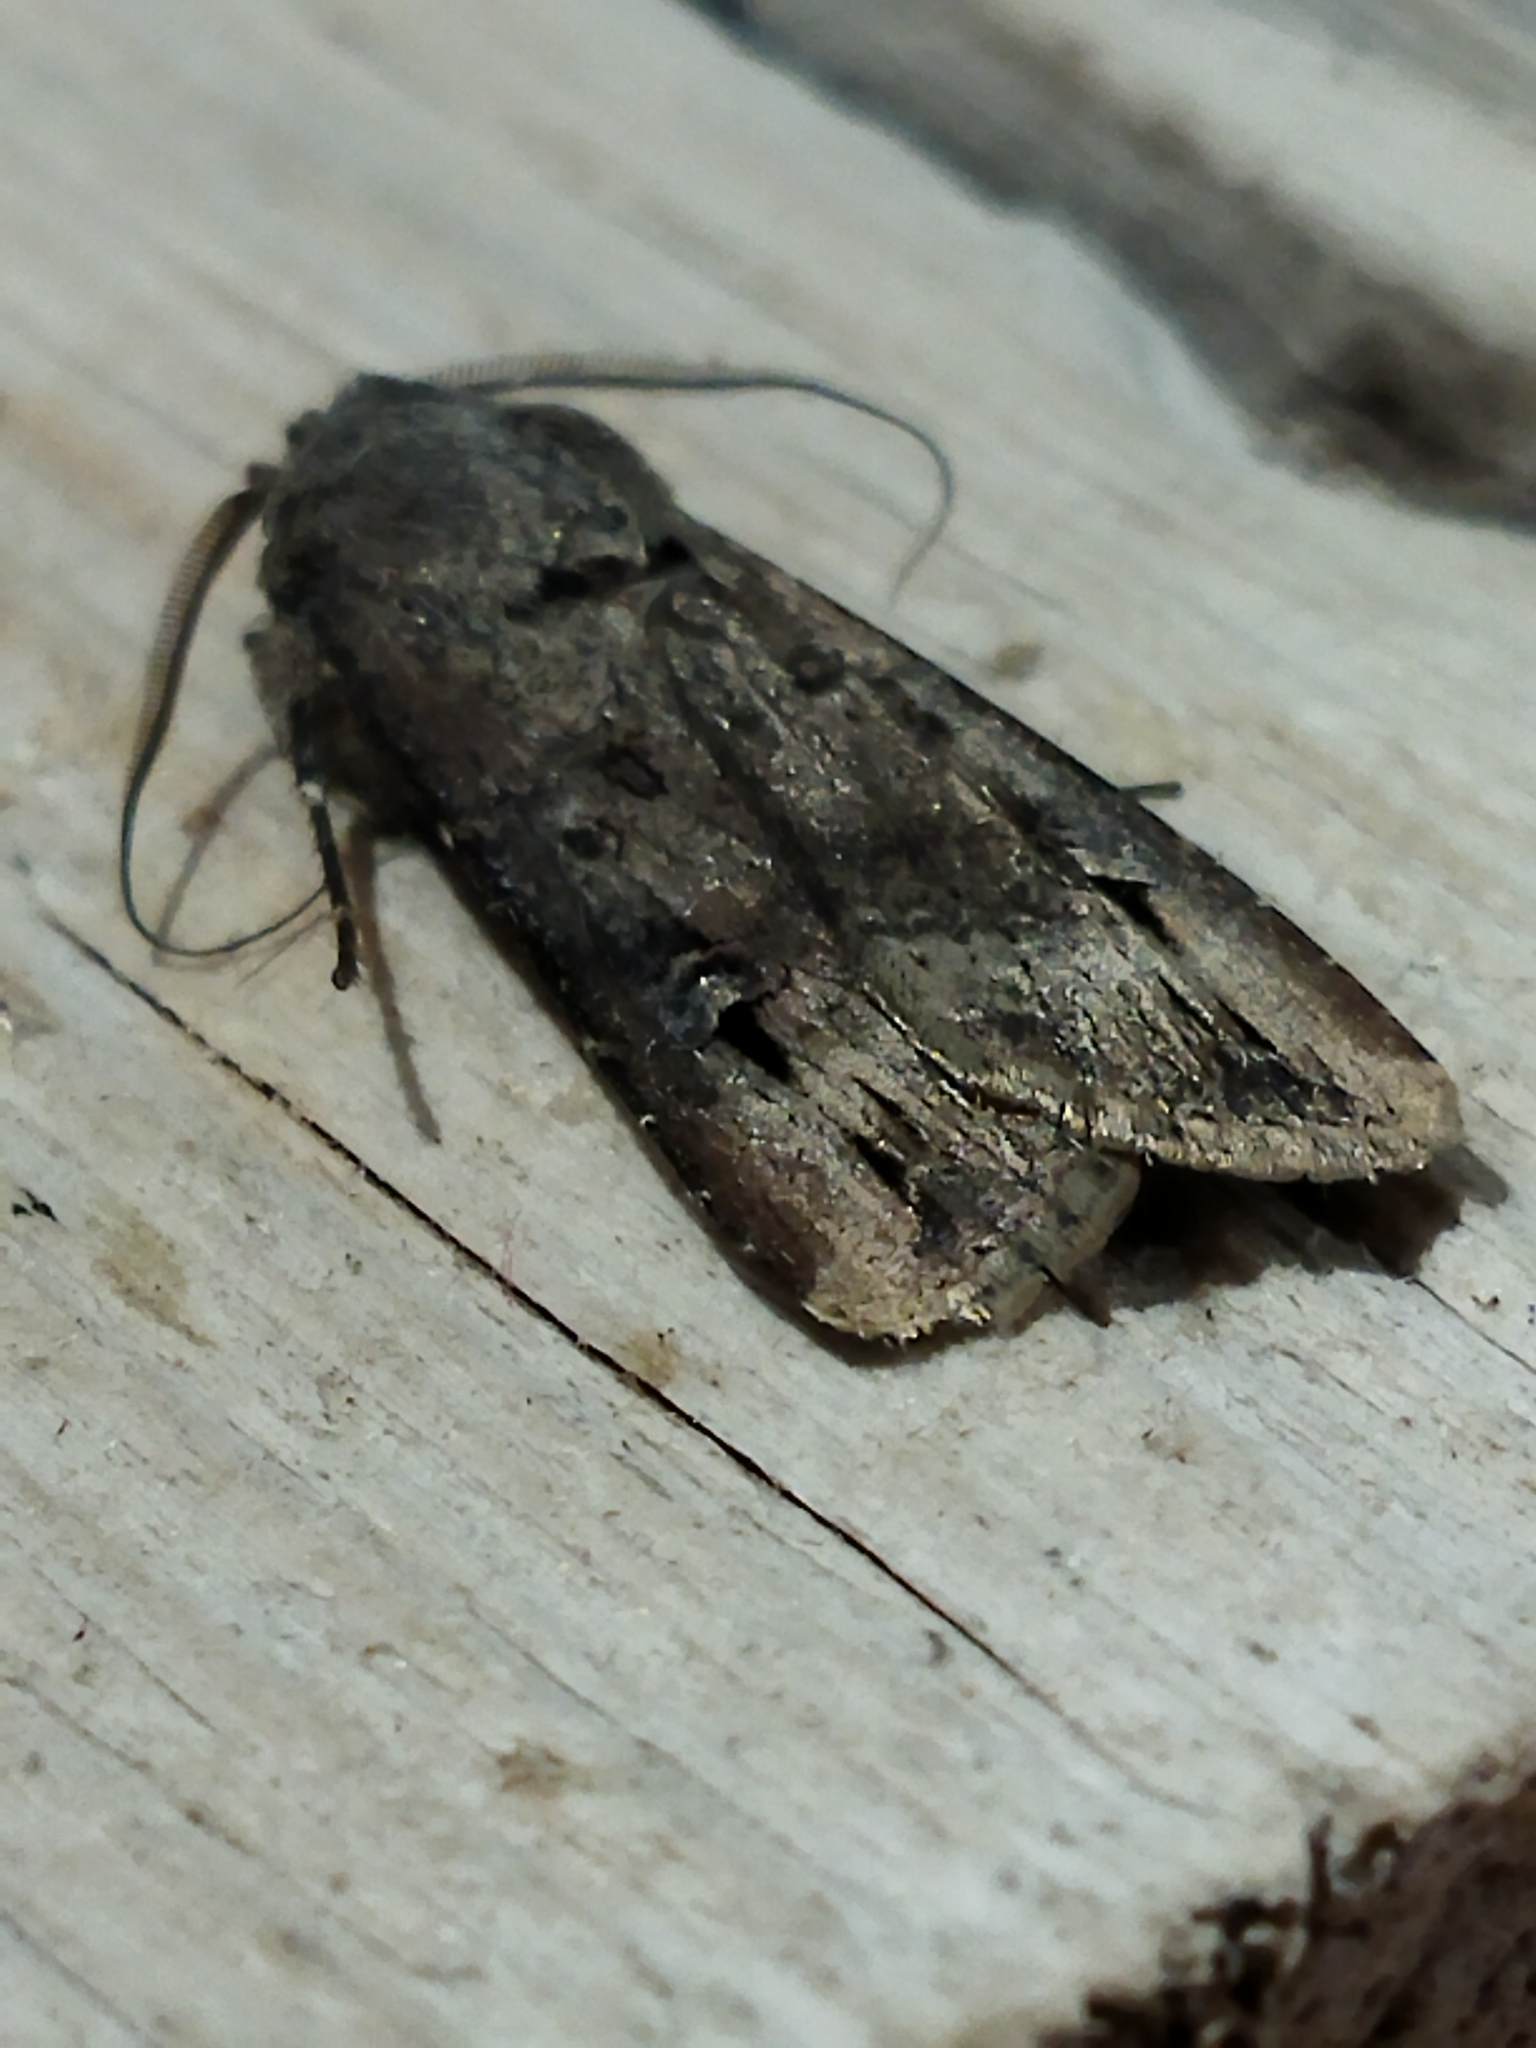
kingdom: Animalia
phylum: Arthropoda
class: Insecta
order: Lepidoptera
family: Noctuidae
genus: Agrotis
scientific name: Agrotis ipsilon
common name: Dark sword-grass
